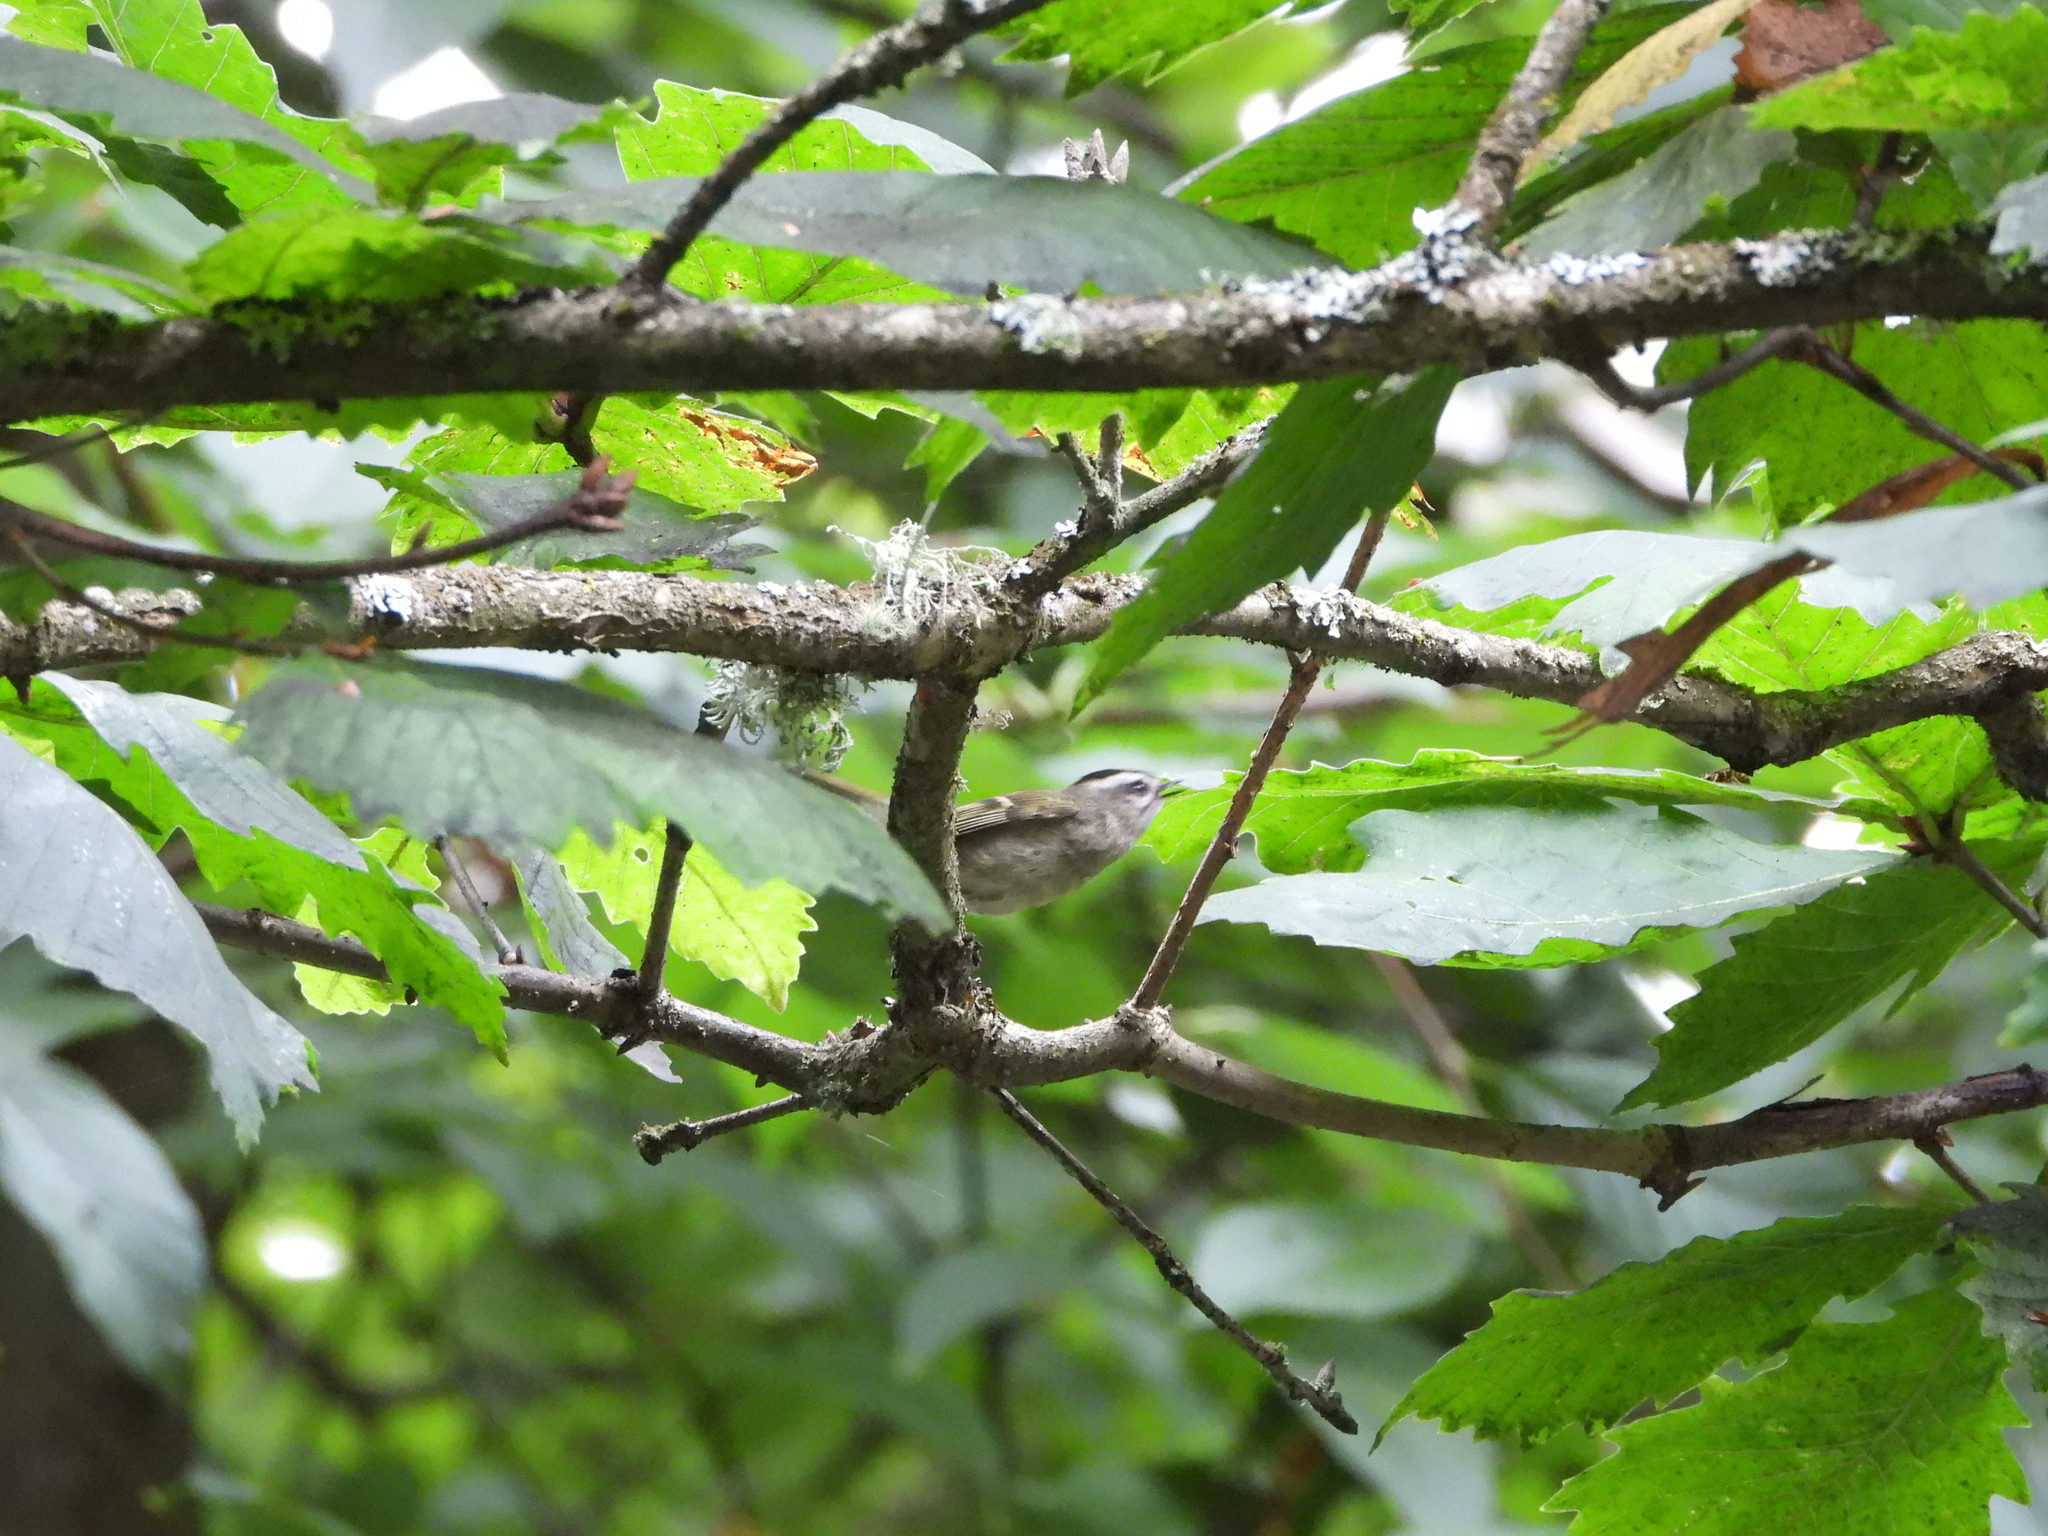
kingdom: Animalia
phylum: Chordata
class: Aves
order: Passeriformes
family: Regulidae
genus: Regulus
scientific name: Regulus satrapa
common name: Golden-crowned kinglet
